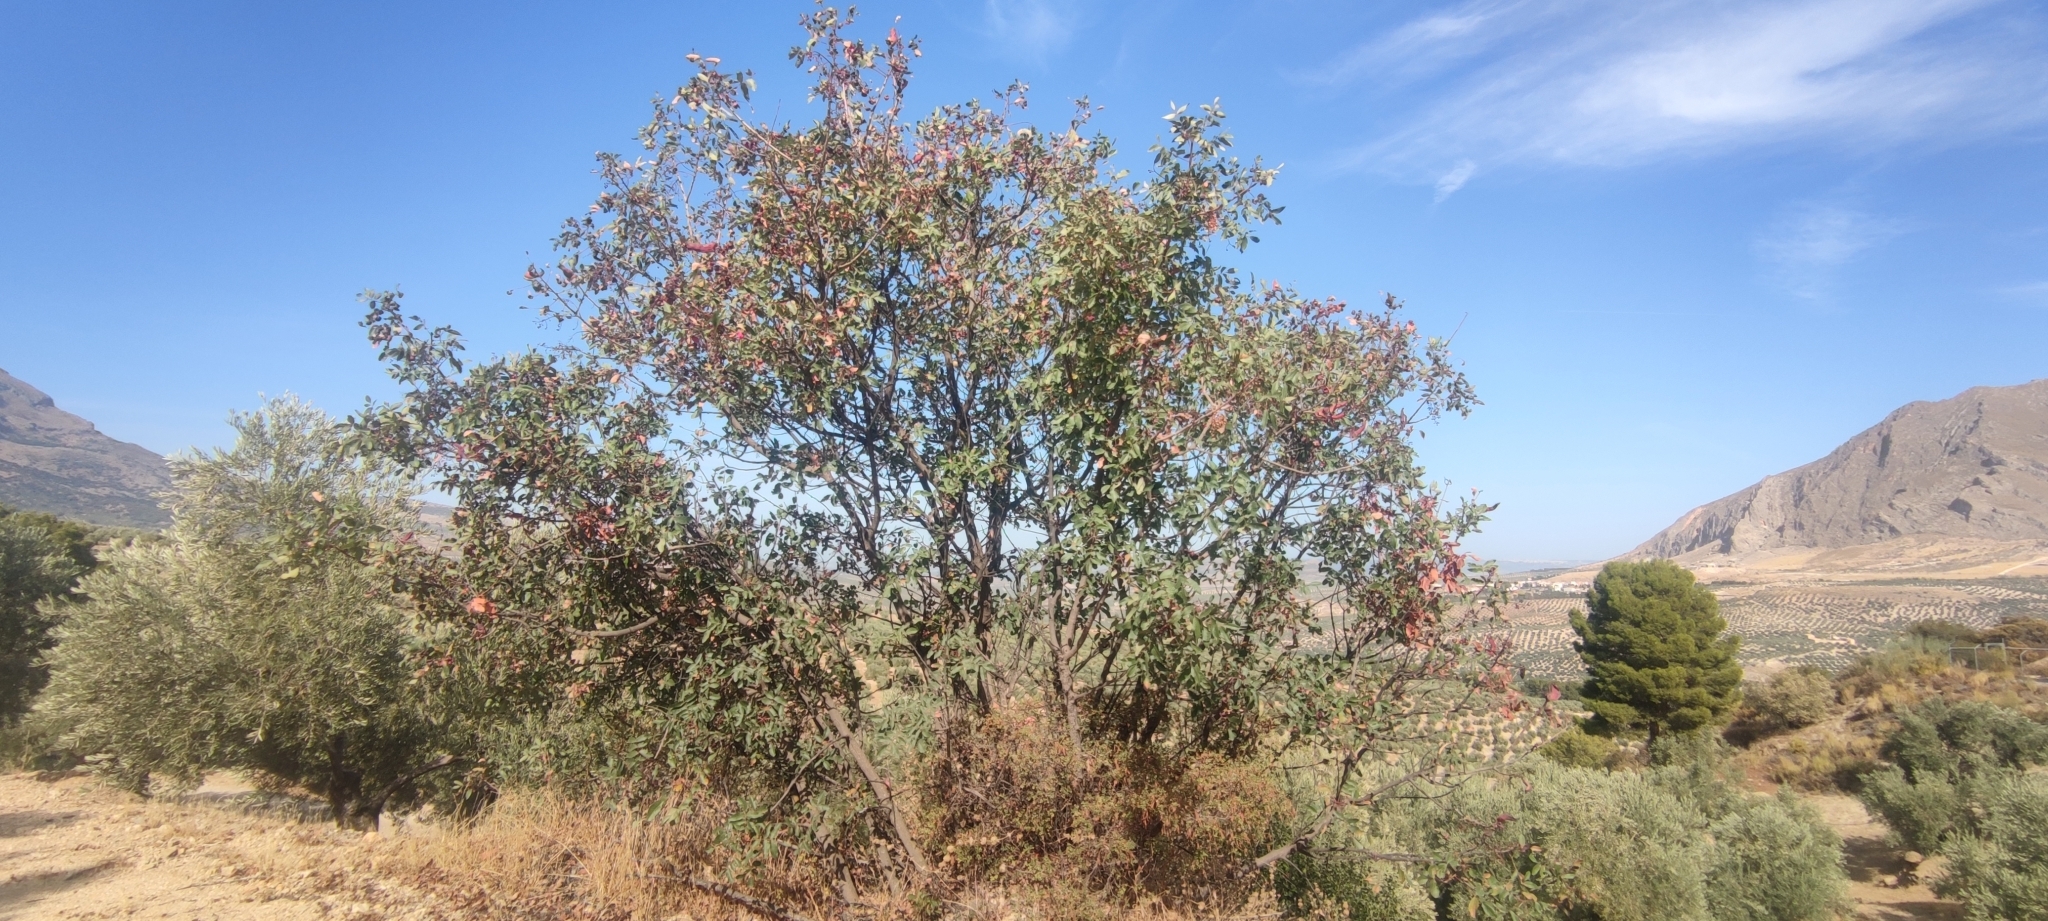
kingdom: Plantae
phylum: Tracheophyta
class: Magnoliopsida
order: Sapindales
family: Anacardiaceae
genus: Pistacia
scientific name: Pistacia terebinthus
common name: Terebinth
